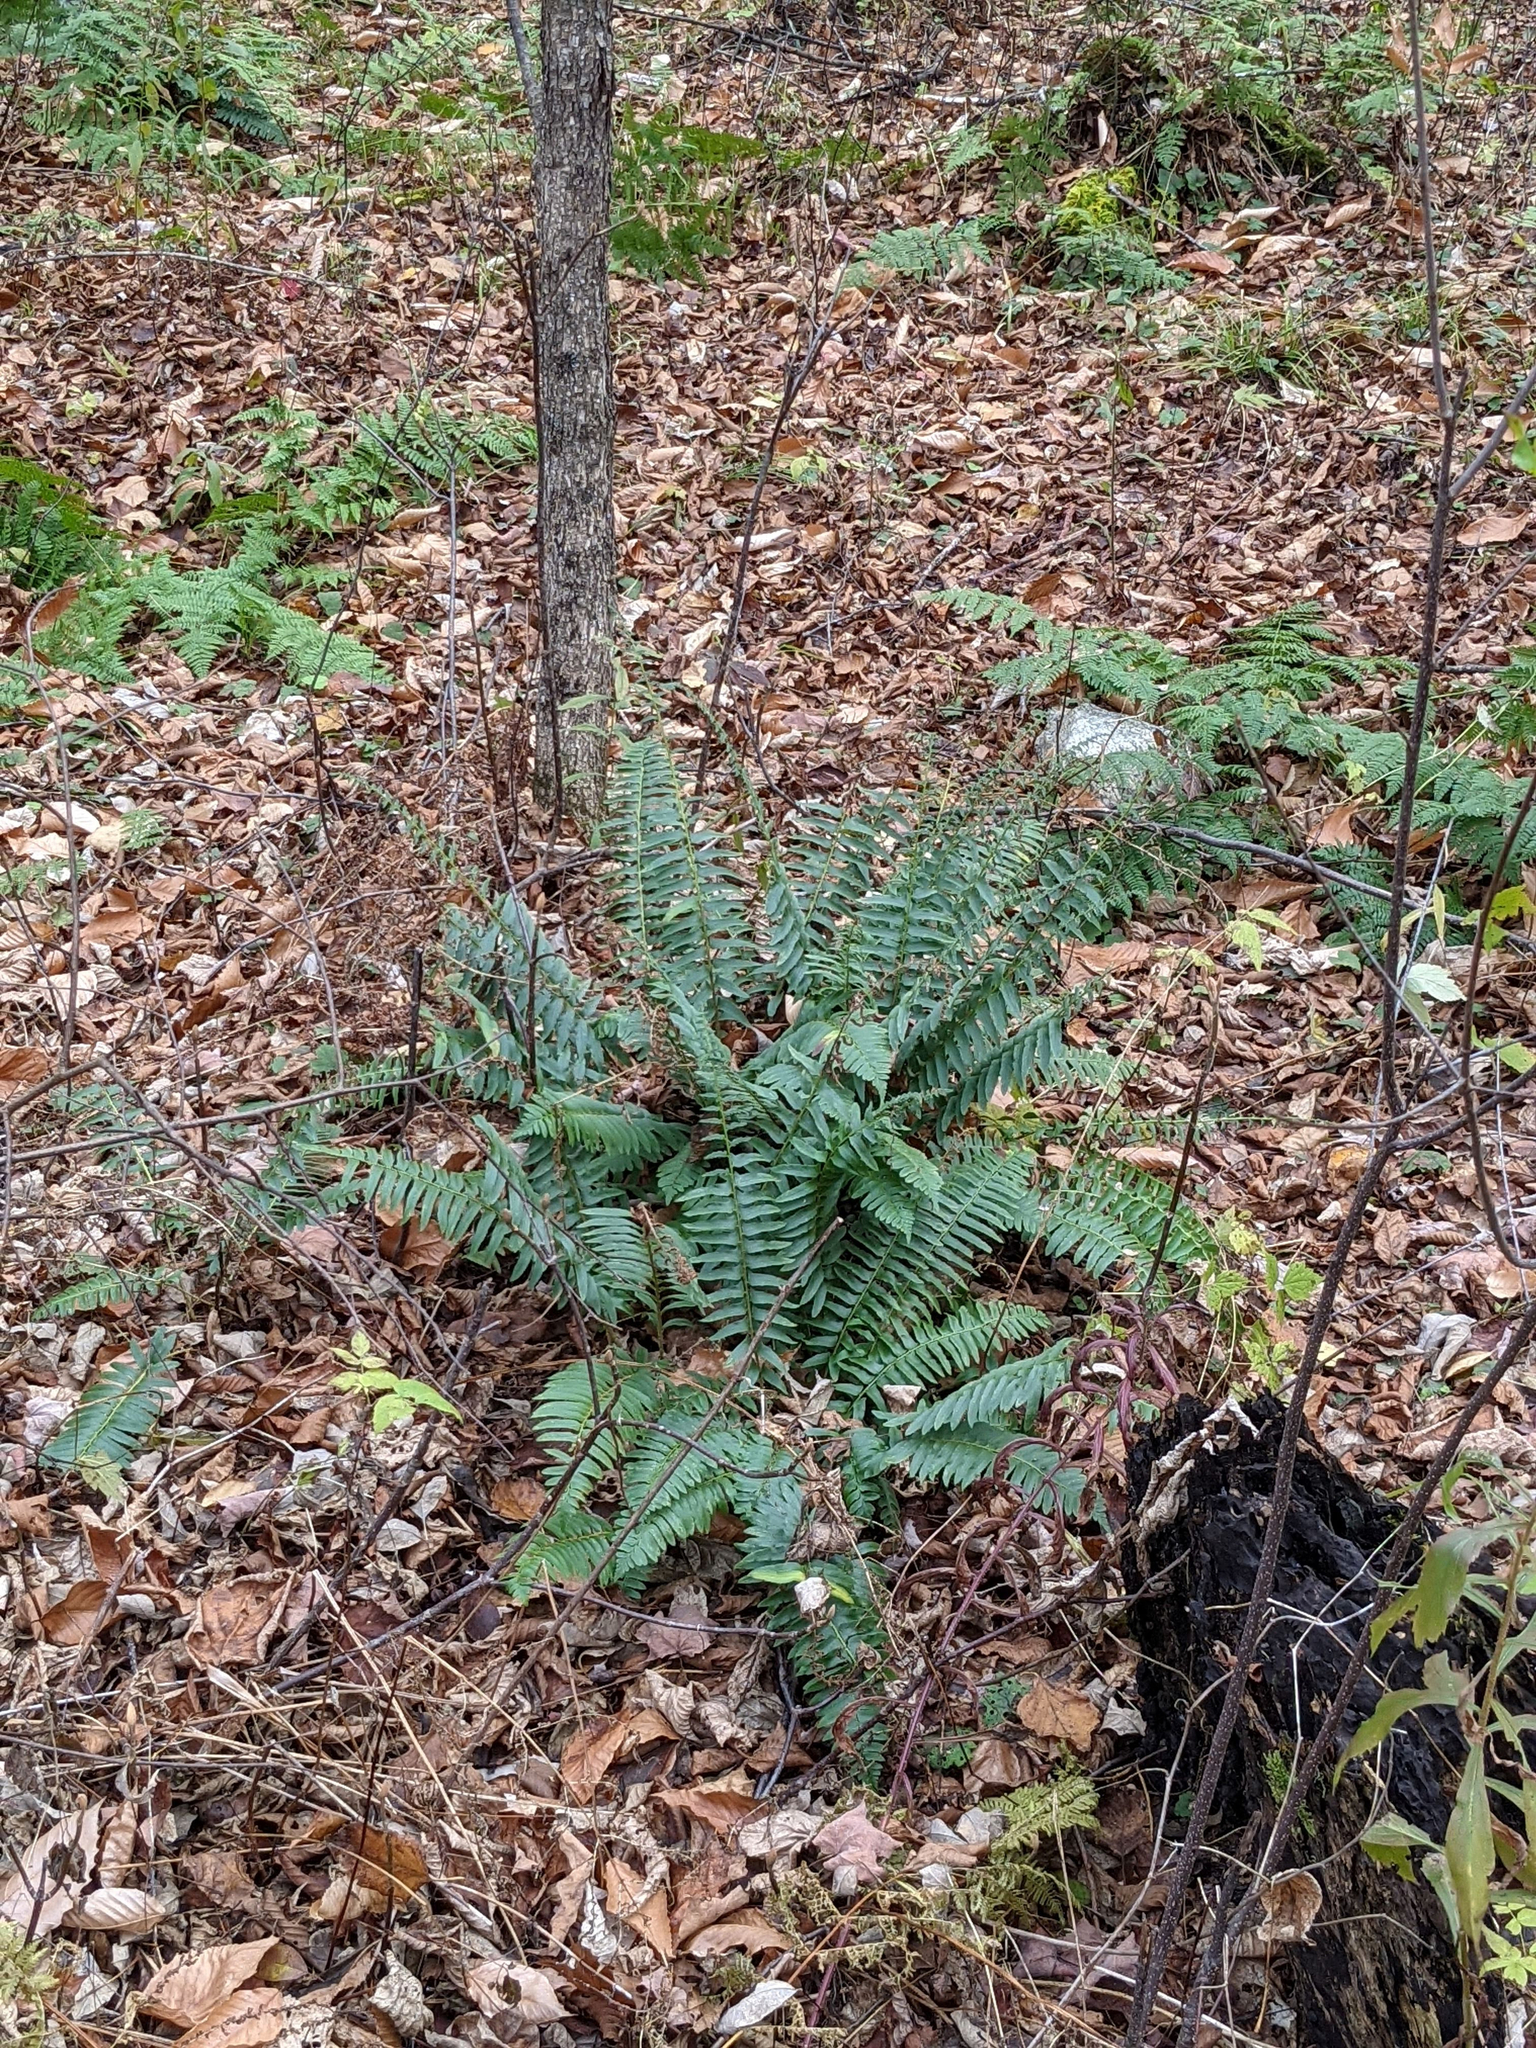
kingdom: Plantae
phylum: Tracheophyta
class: Polypodiopsida
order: Polypodiales
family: Dryopteridaceae
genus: Polystichum
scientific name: Polystichum acrostichoides
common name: Christmas fern
